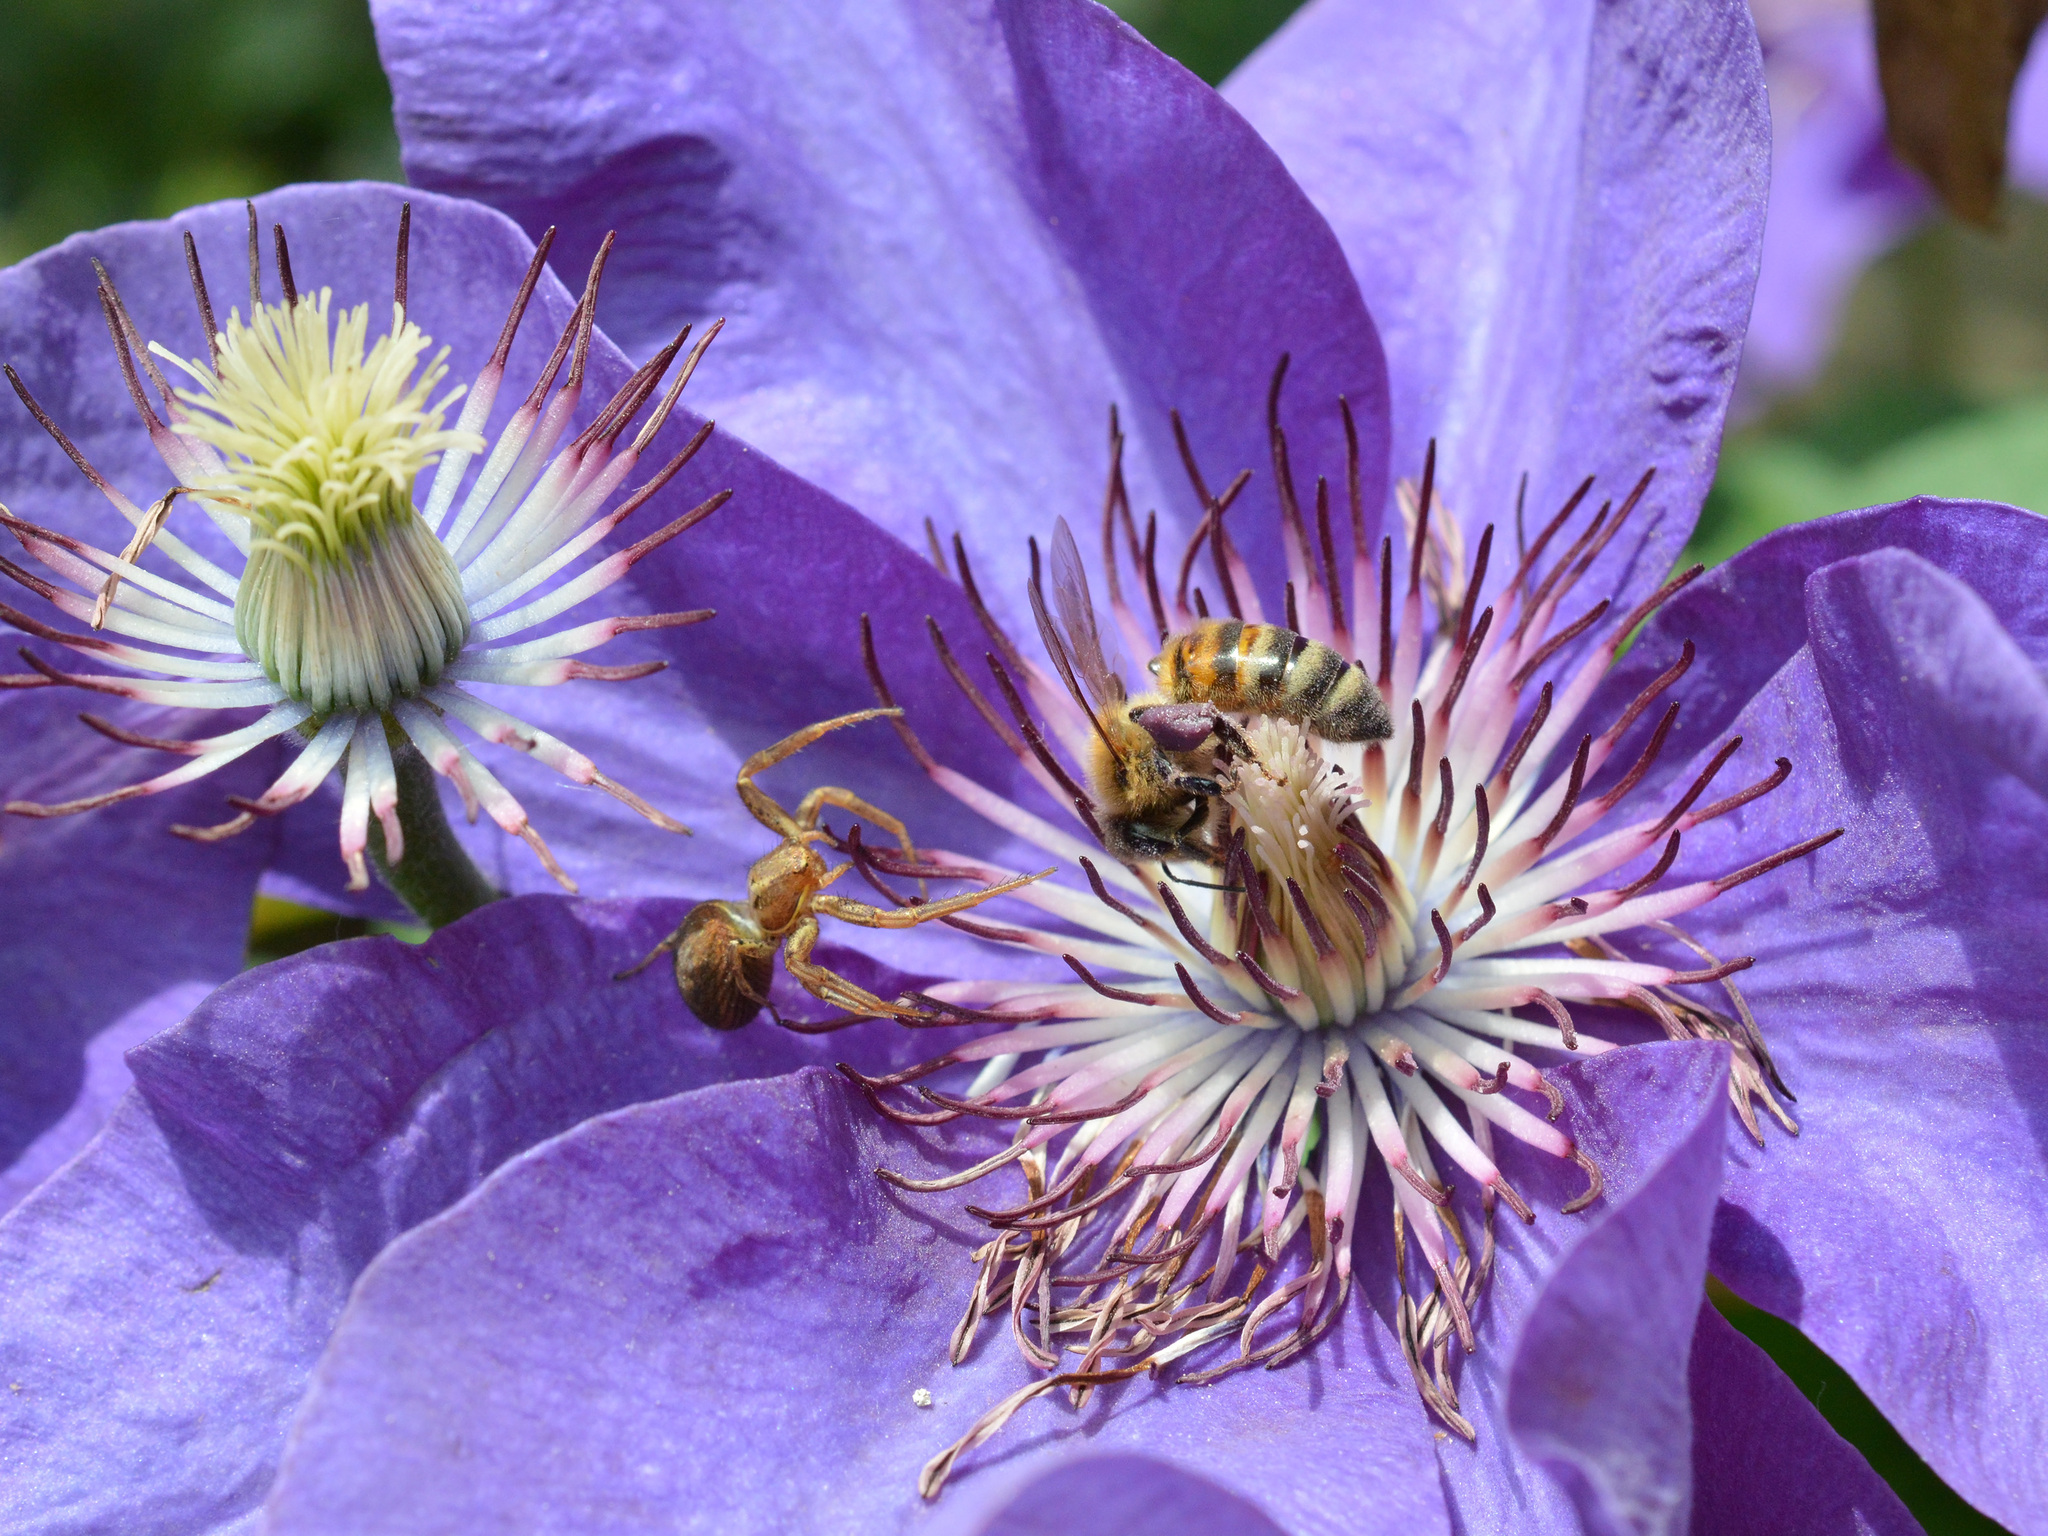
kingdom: Animalia
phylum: Arthropoda
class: Insecta
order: Hymenoptera
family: Apidae
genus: Apis
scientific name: Apis mellifera
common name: Honey bee
